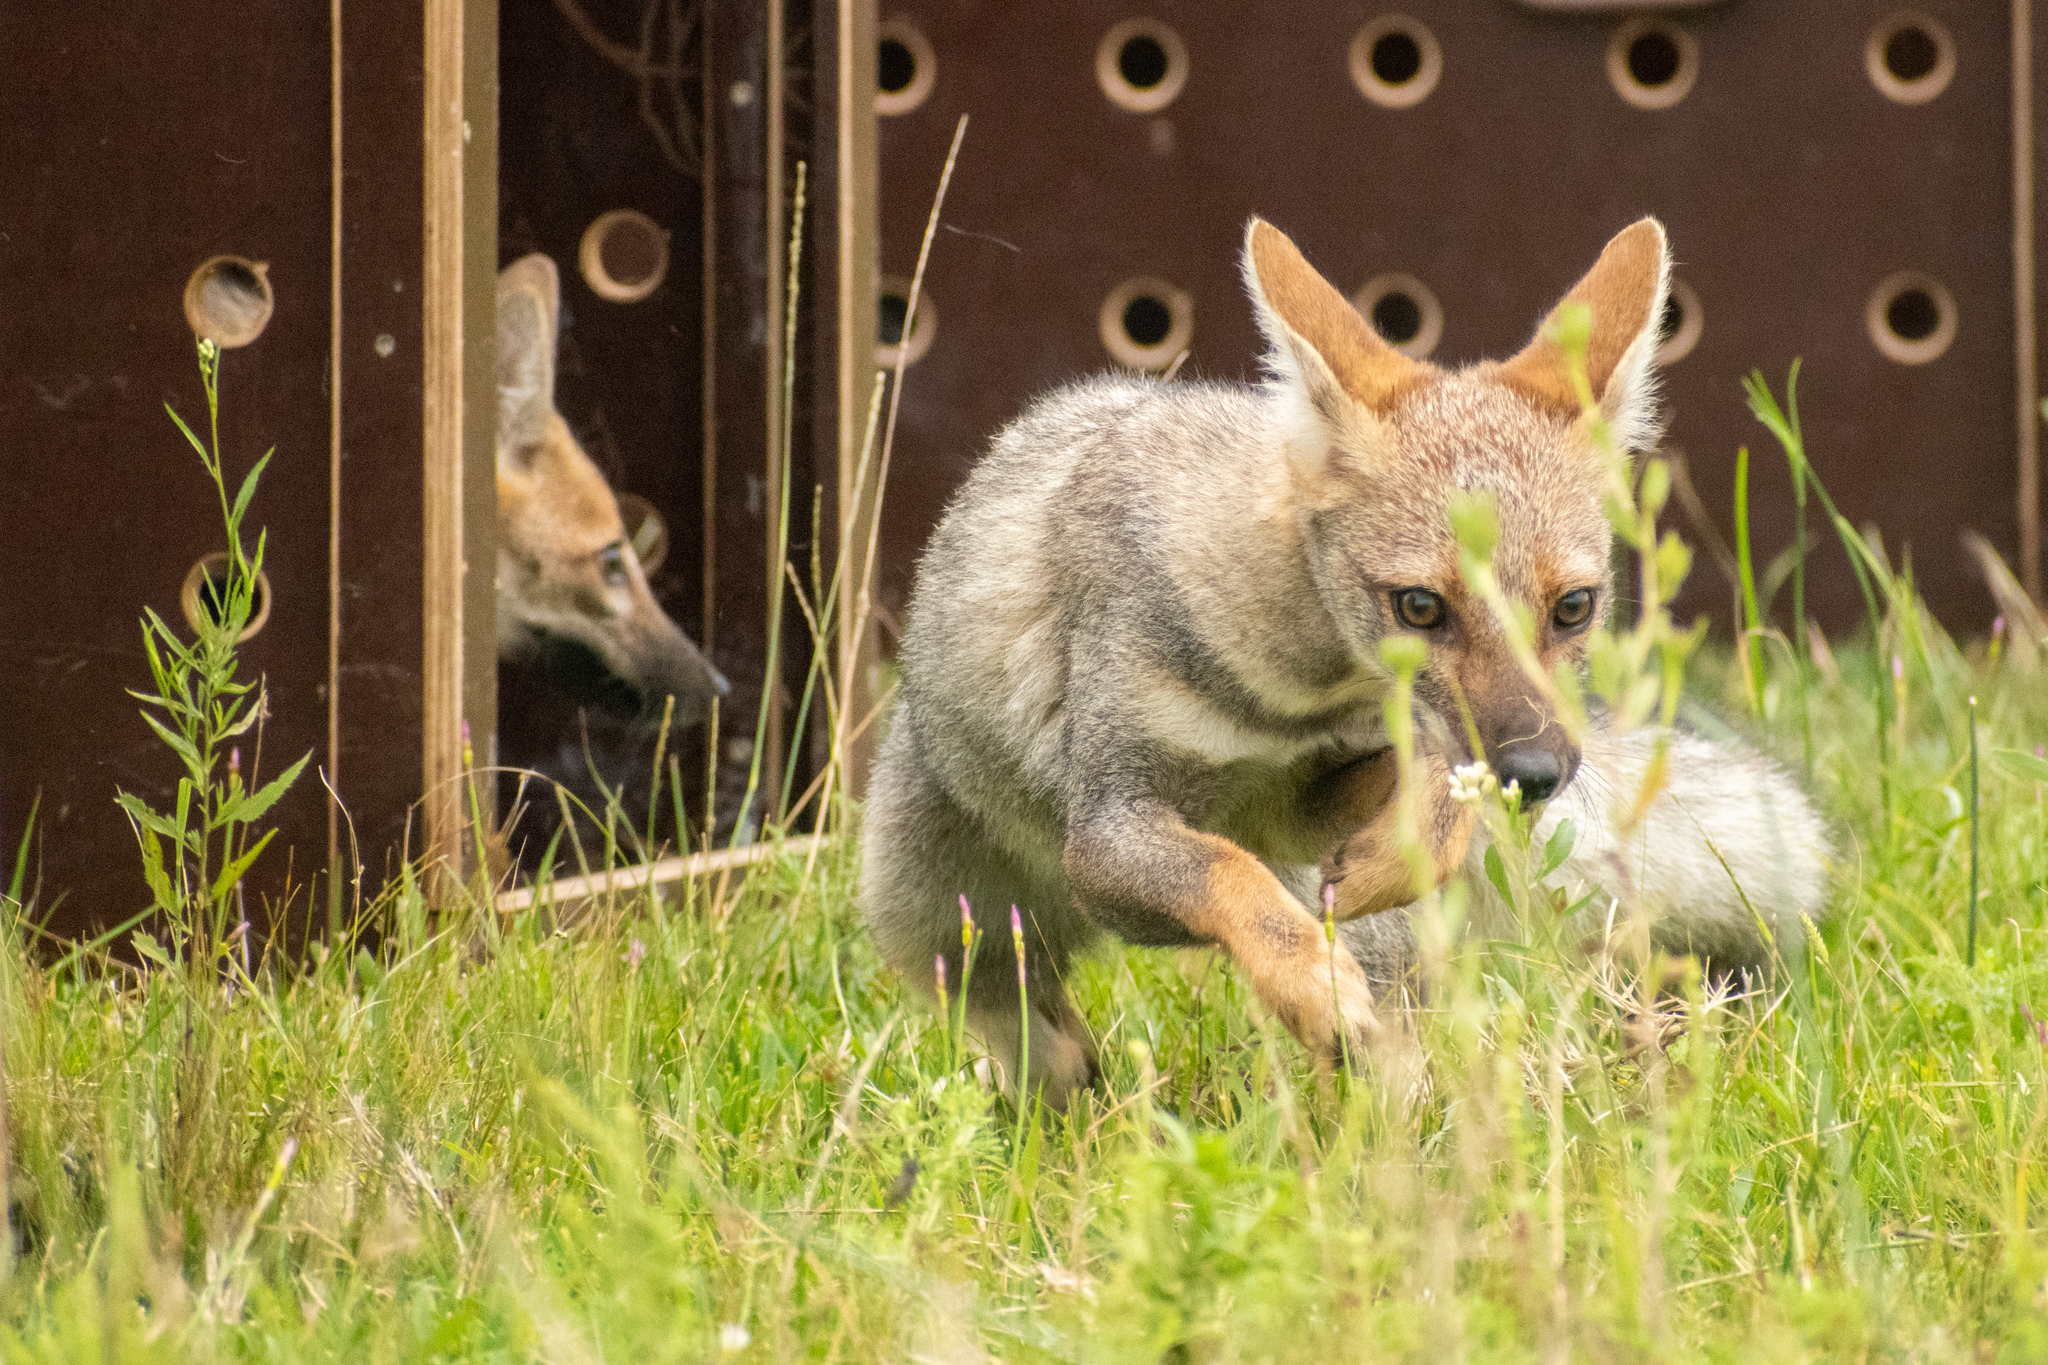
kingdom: Animalia
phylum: Chordata
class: Mammalia
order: Carnivora
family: Canidae
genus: Lycalopex
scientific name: Lycalopex gymnocercus
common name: Pampas fox
